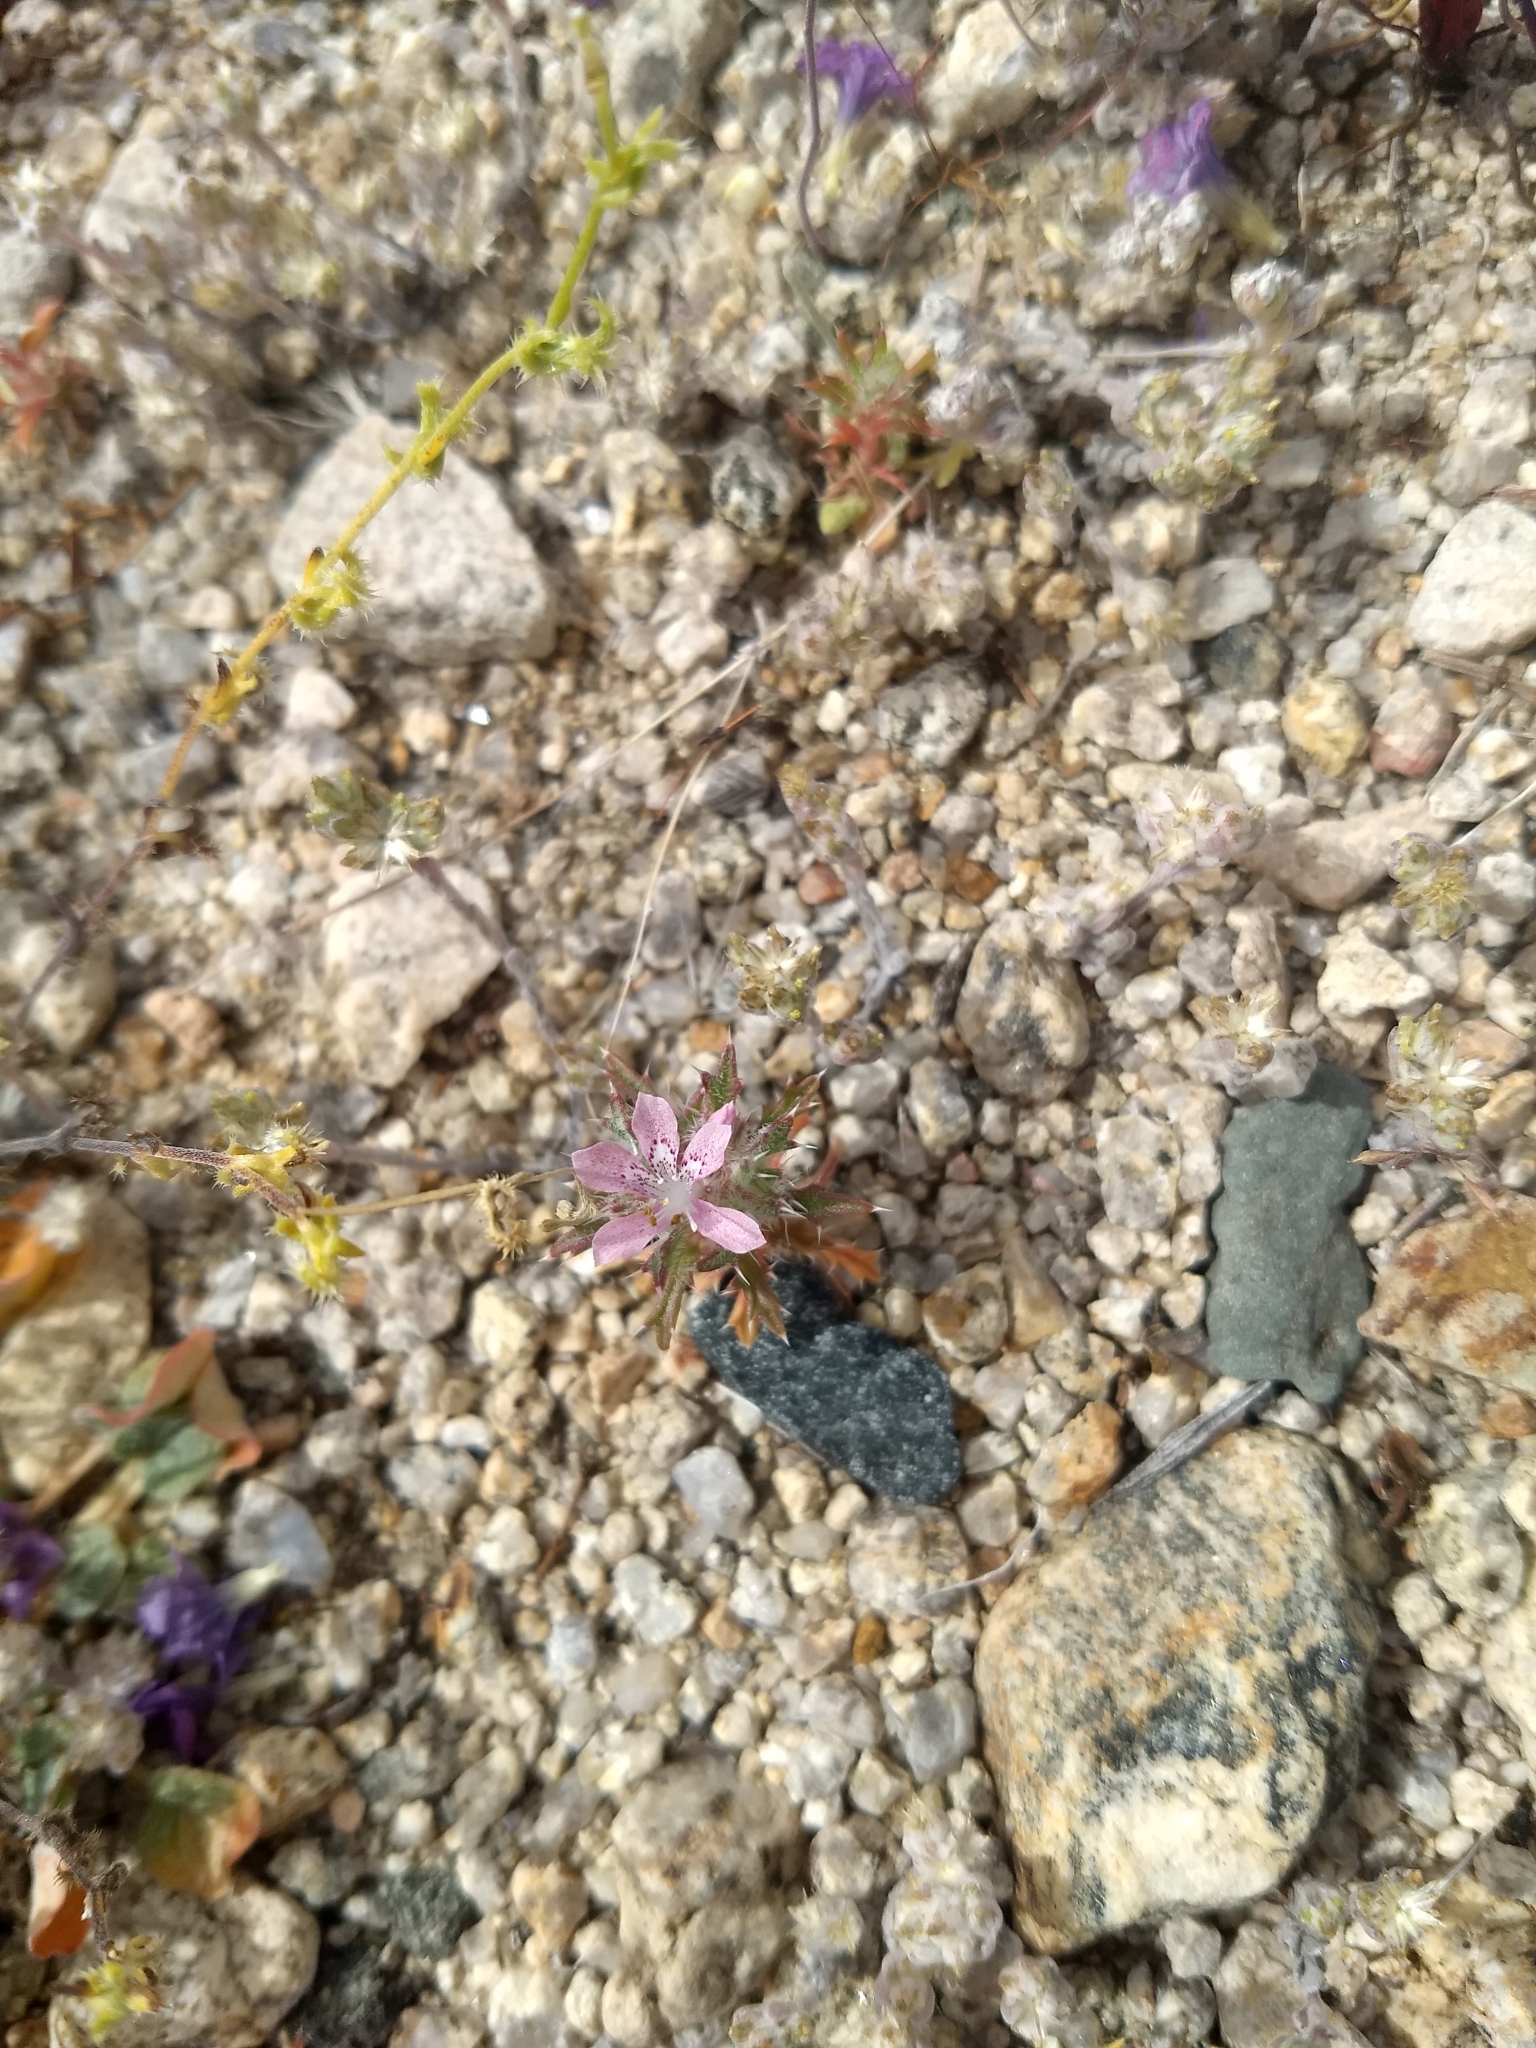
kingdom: Plantae
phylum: Tracheophyta
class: Magnoliopsida
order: Ericales
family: Polemoniaceae
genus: Loeseliastrum
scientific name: Loeseliastrum matthewsii
